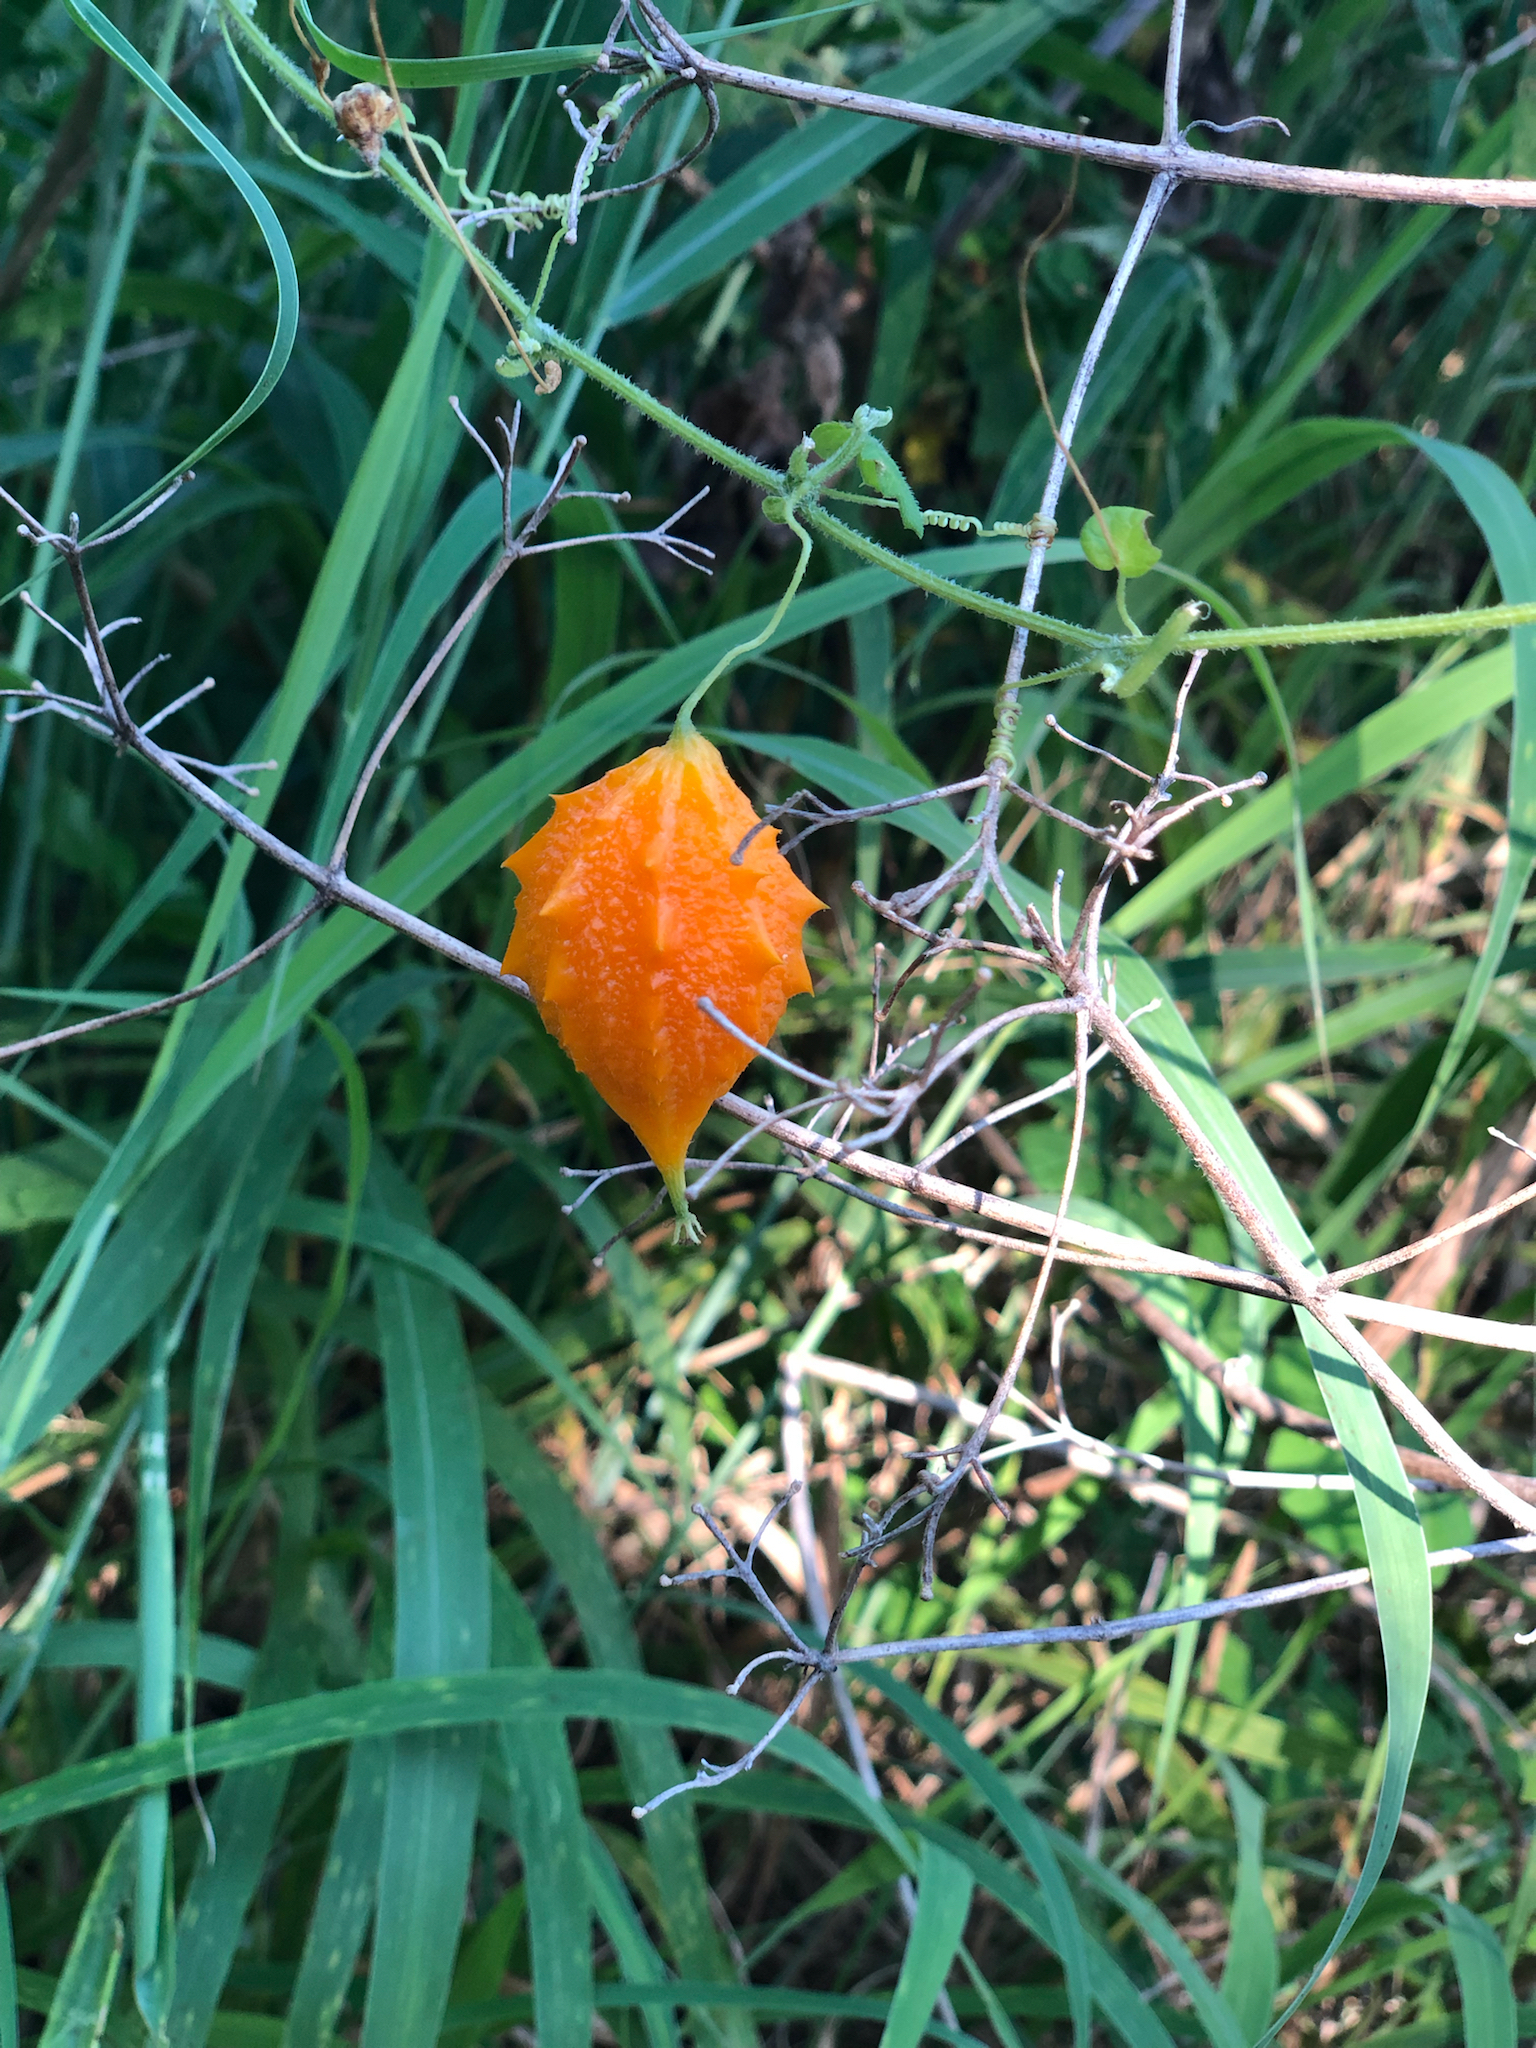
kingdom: Plantae
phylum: Tracheophyta
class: Magnoliopsida
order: Cucurbitales
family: Cucurbitaceae
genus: Momordica
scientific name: Momordica charantia
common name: Balsampear
